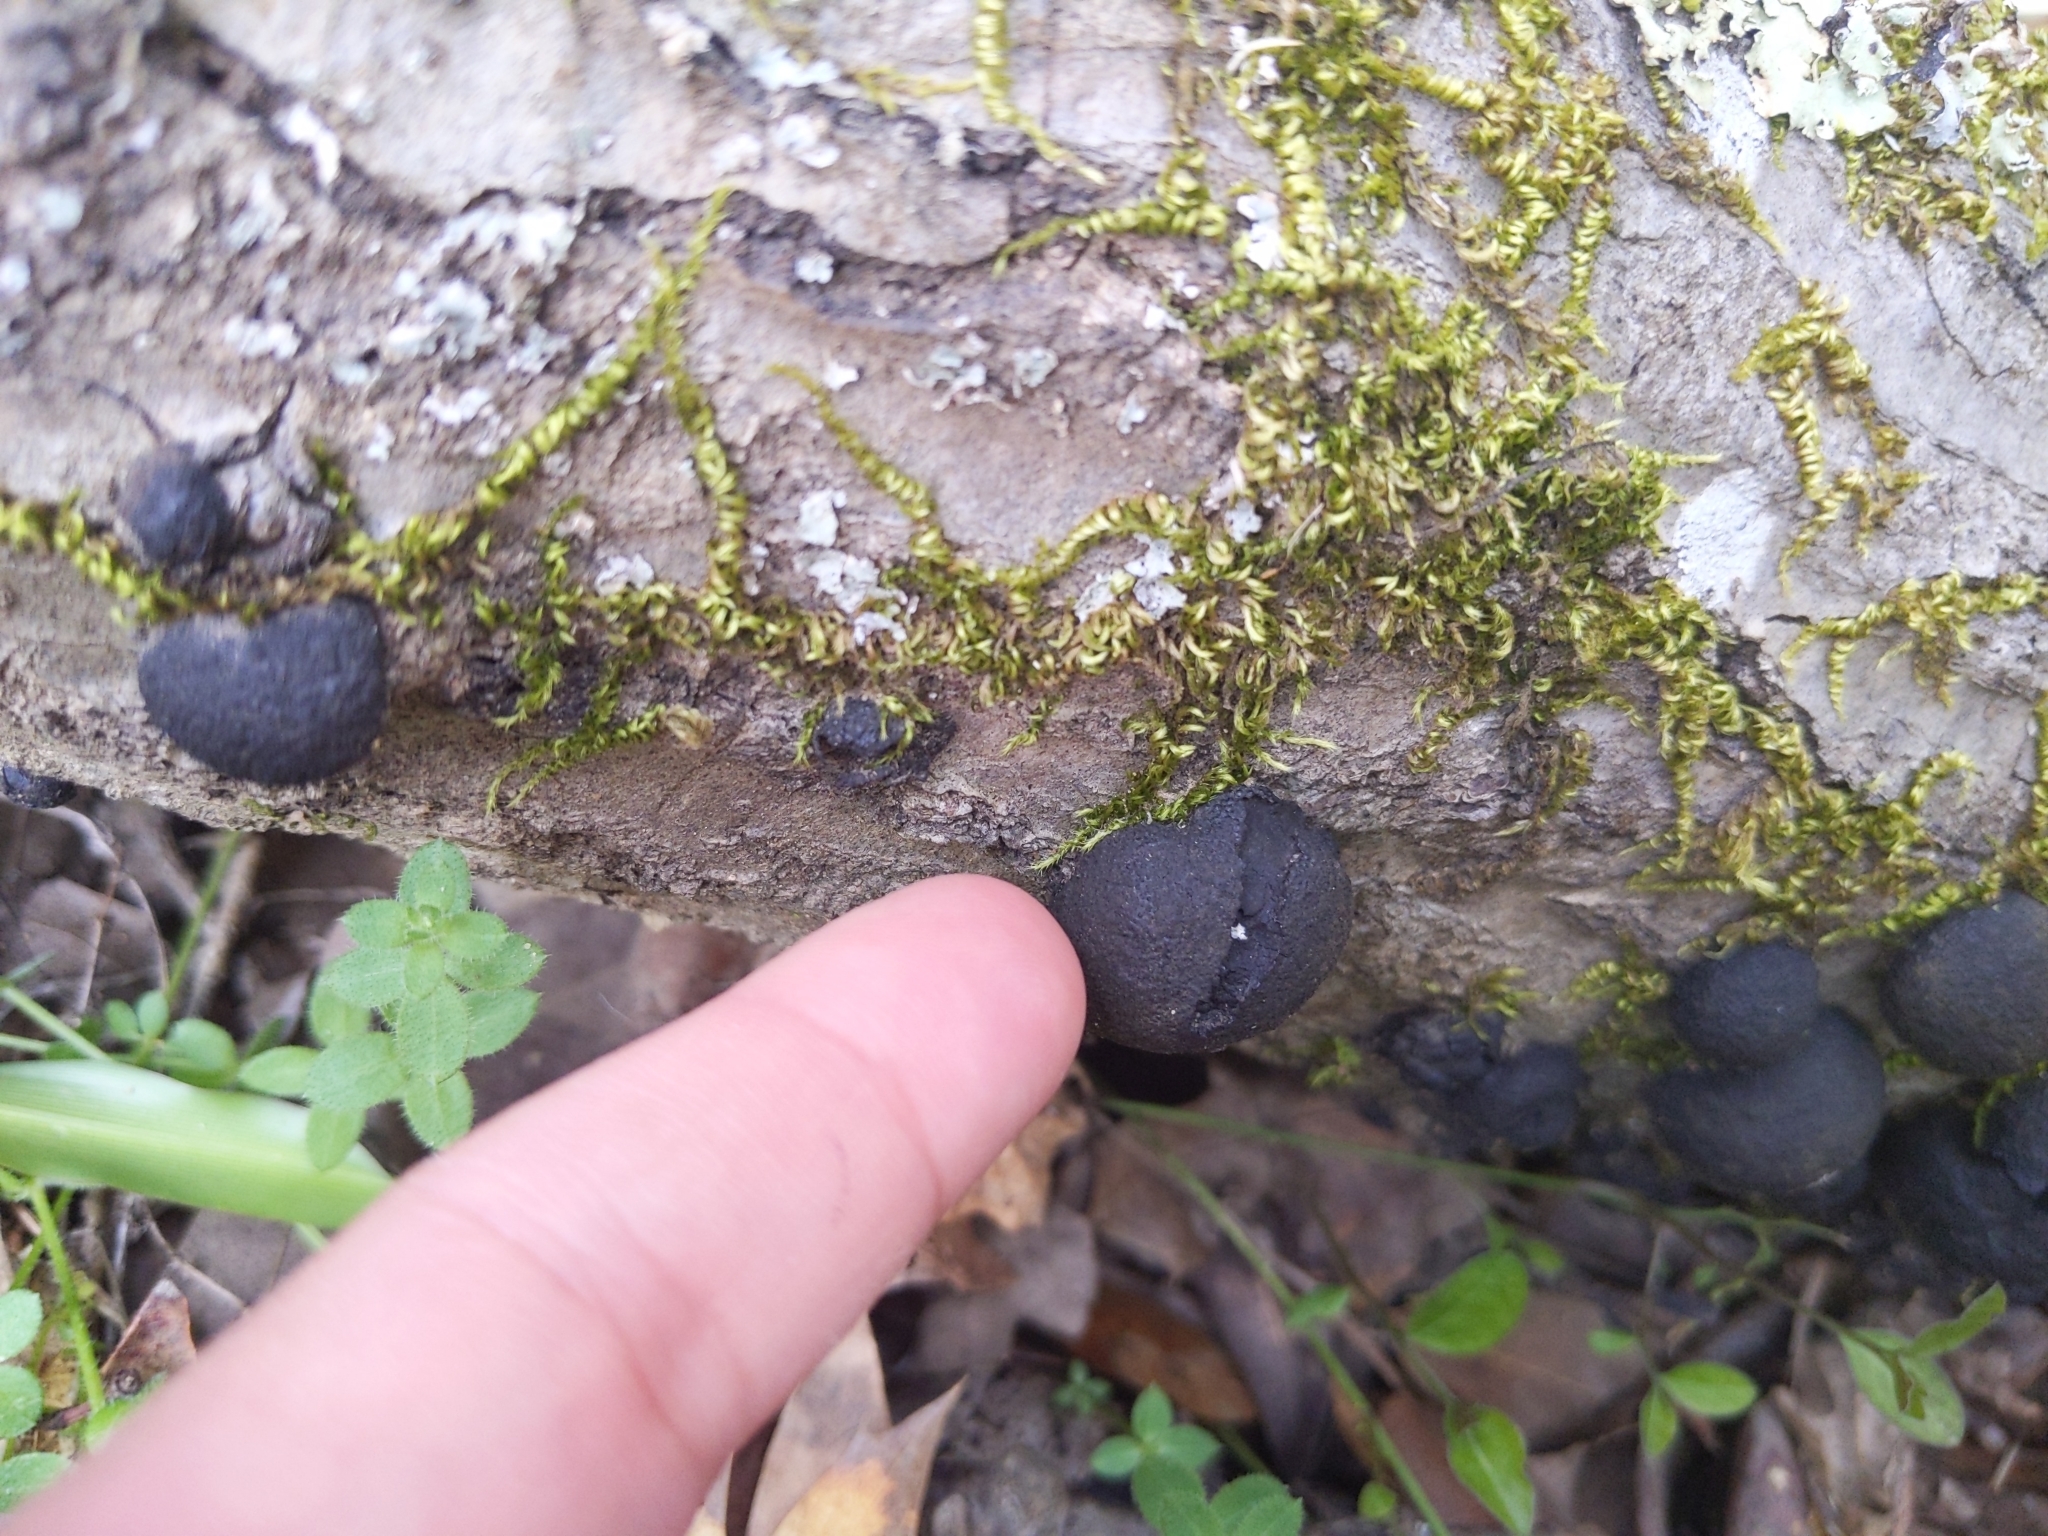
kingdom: Fungi
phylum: Ascomycota
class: Sordariomycetes
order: Xylariales
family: Hypoxylaceae
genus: Annulohypoxylon
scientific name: Annulohypoxylon thouarsianum
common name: Cramp balls
